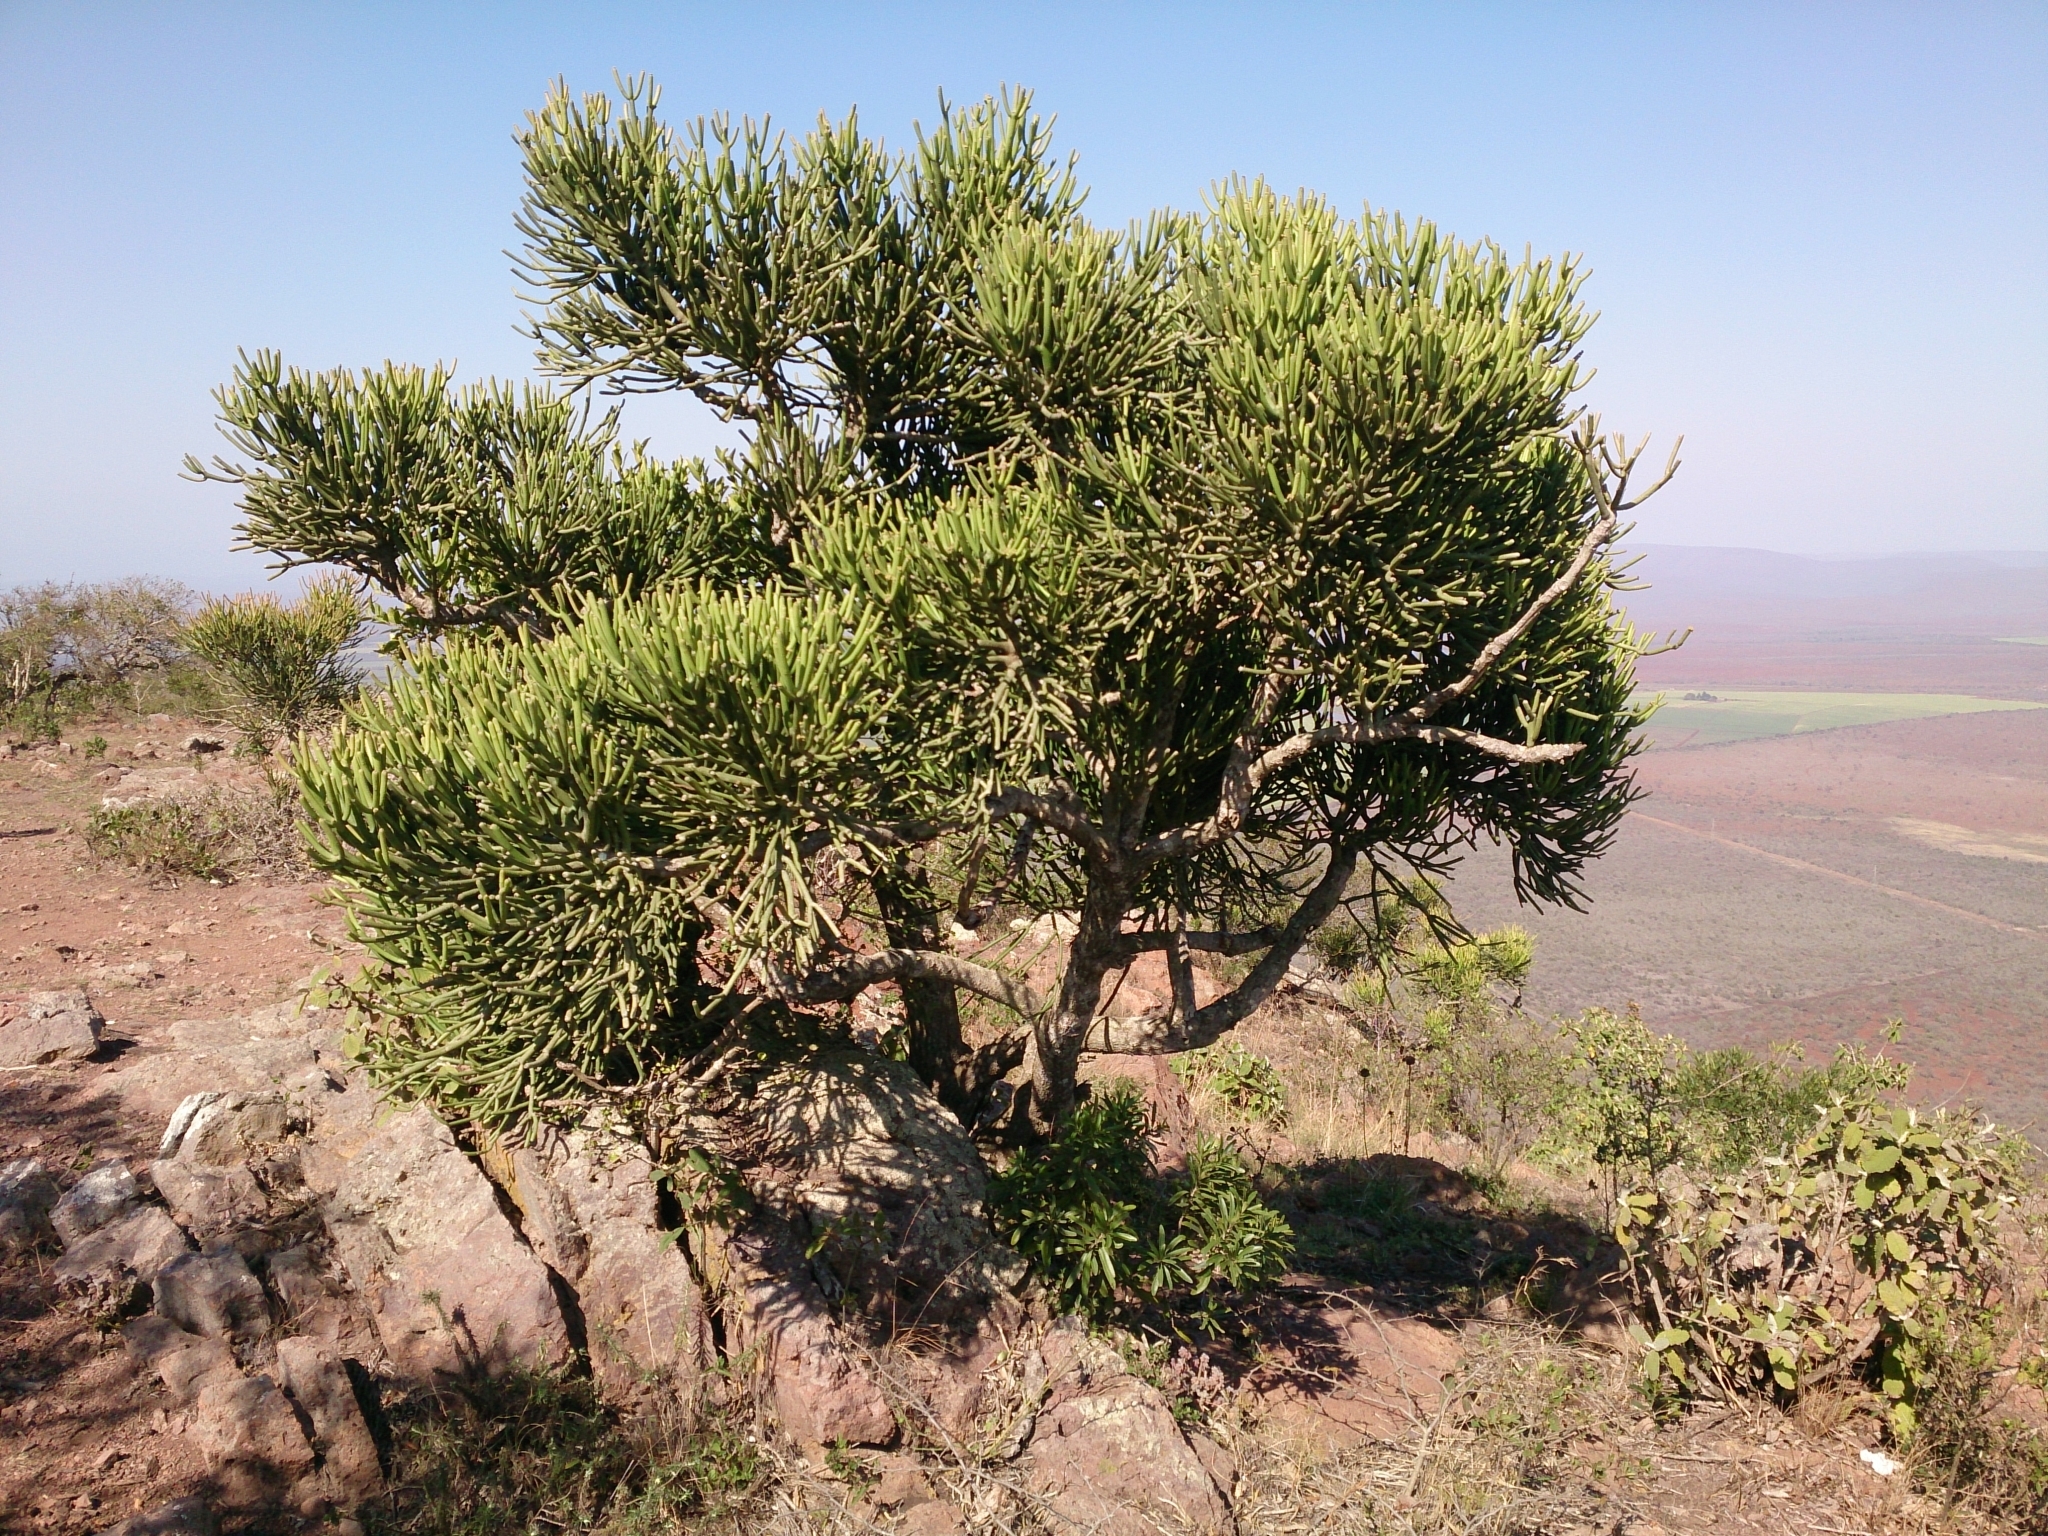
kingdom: Plantae
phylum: Tracheophyta
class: Magnoliopsida
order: Malpighiales
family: Euphorbiaceae
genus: Euphorbia
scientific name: Euphorbia tirucalli
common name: Indiantree spurge
